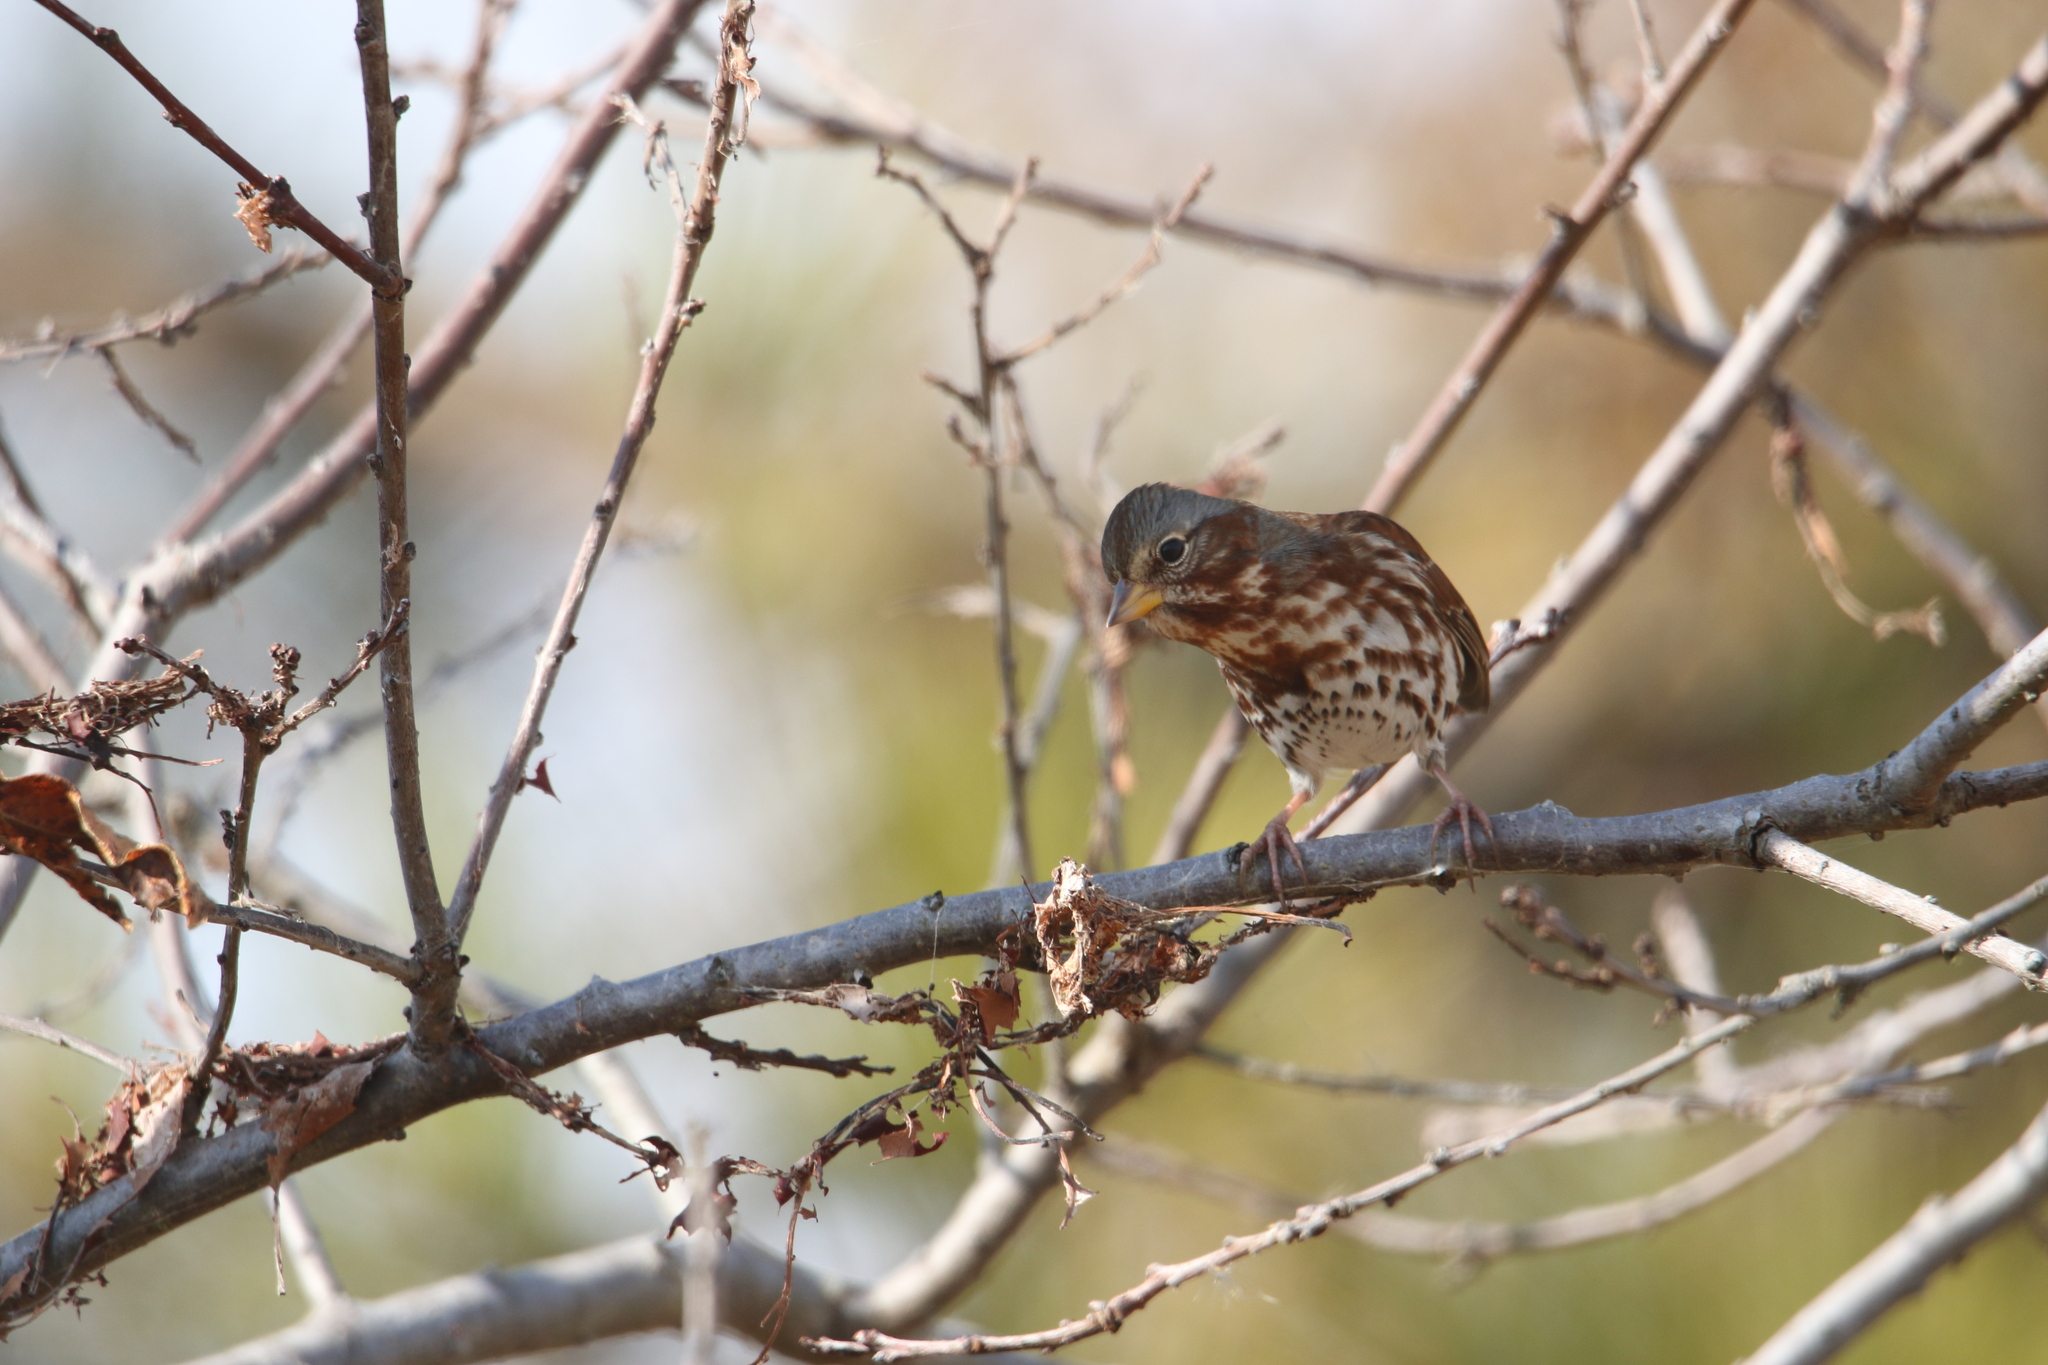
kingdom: Animalia
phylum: Chordata
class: Aves
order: Passeriformes
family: Passerellidae
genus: Passerella
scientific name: Passerella iliaca
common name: Fox sparrow
